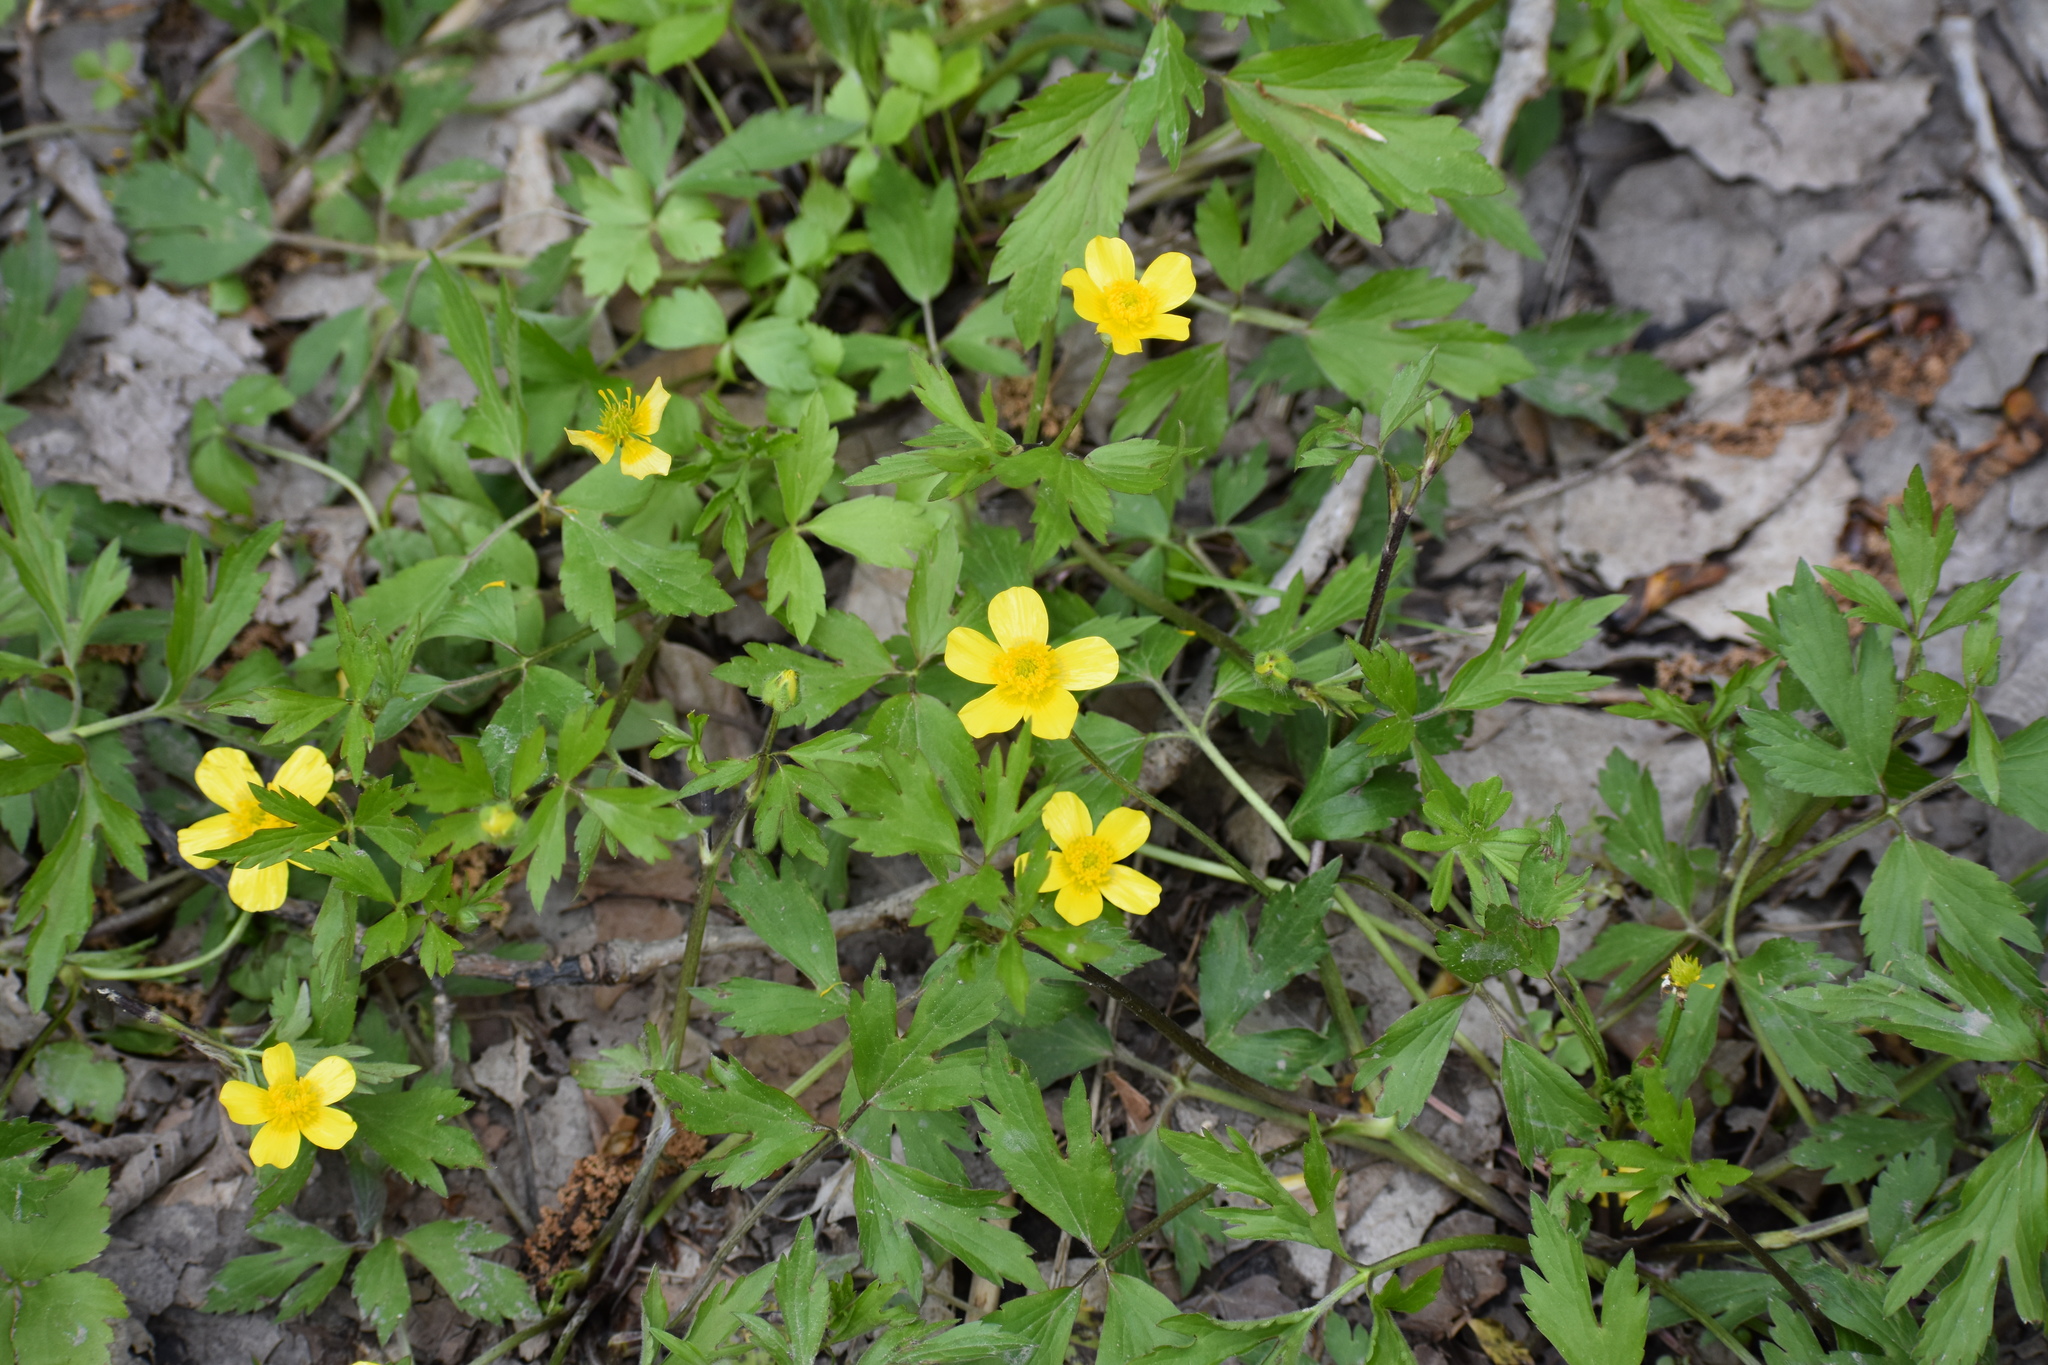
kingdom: Plantae
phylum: Tracheophyta
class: Magnoliopsida
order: Ranunculales
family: Ranunculaceae
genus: Ranunculus
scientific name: Ranunculus hispidus
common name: Bristly buttercup
